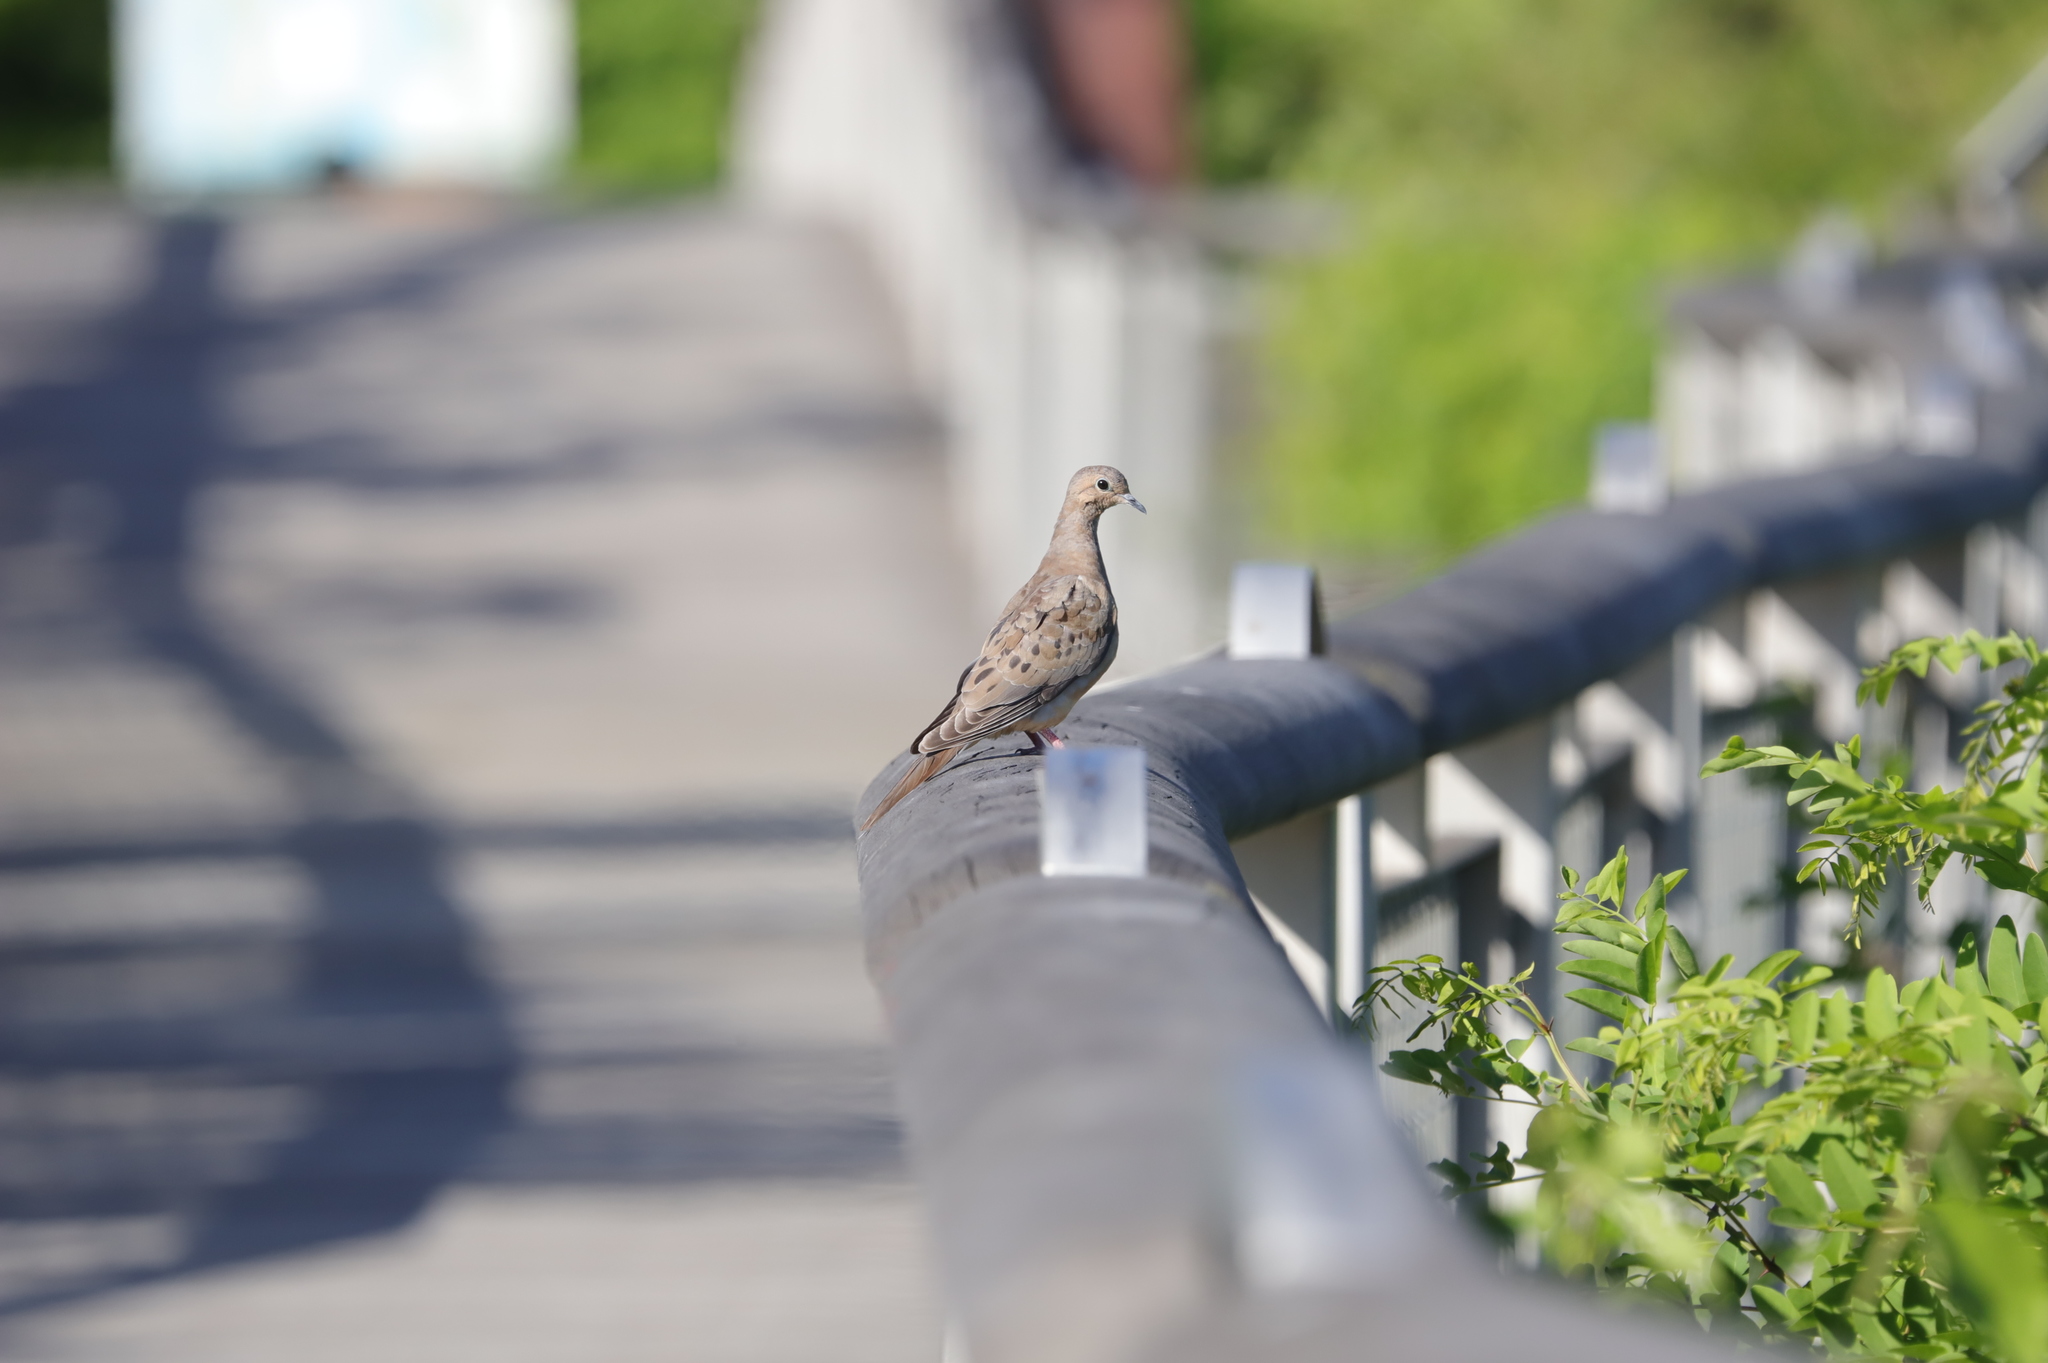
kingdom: Animalia
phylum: Chordata
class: Aves
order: Columbiformes
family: Columbidae
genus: Zenaida
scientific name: Zenaida macroura
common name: Mourning dove
